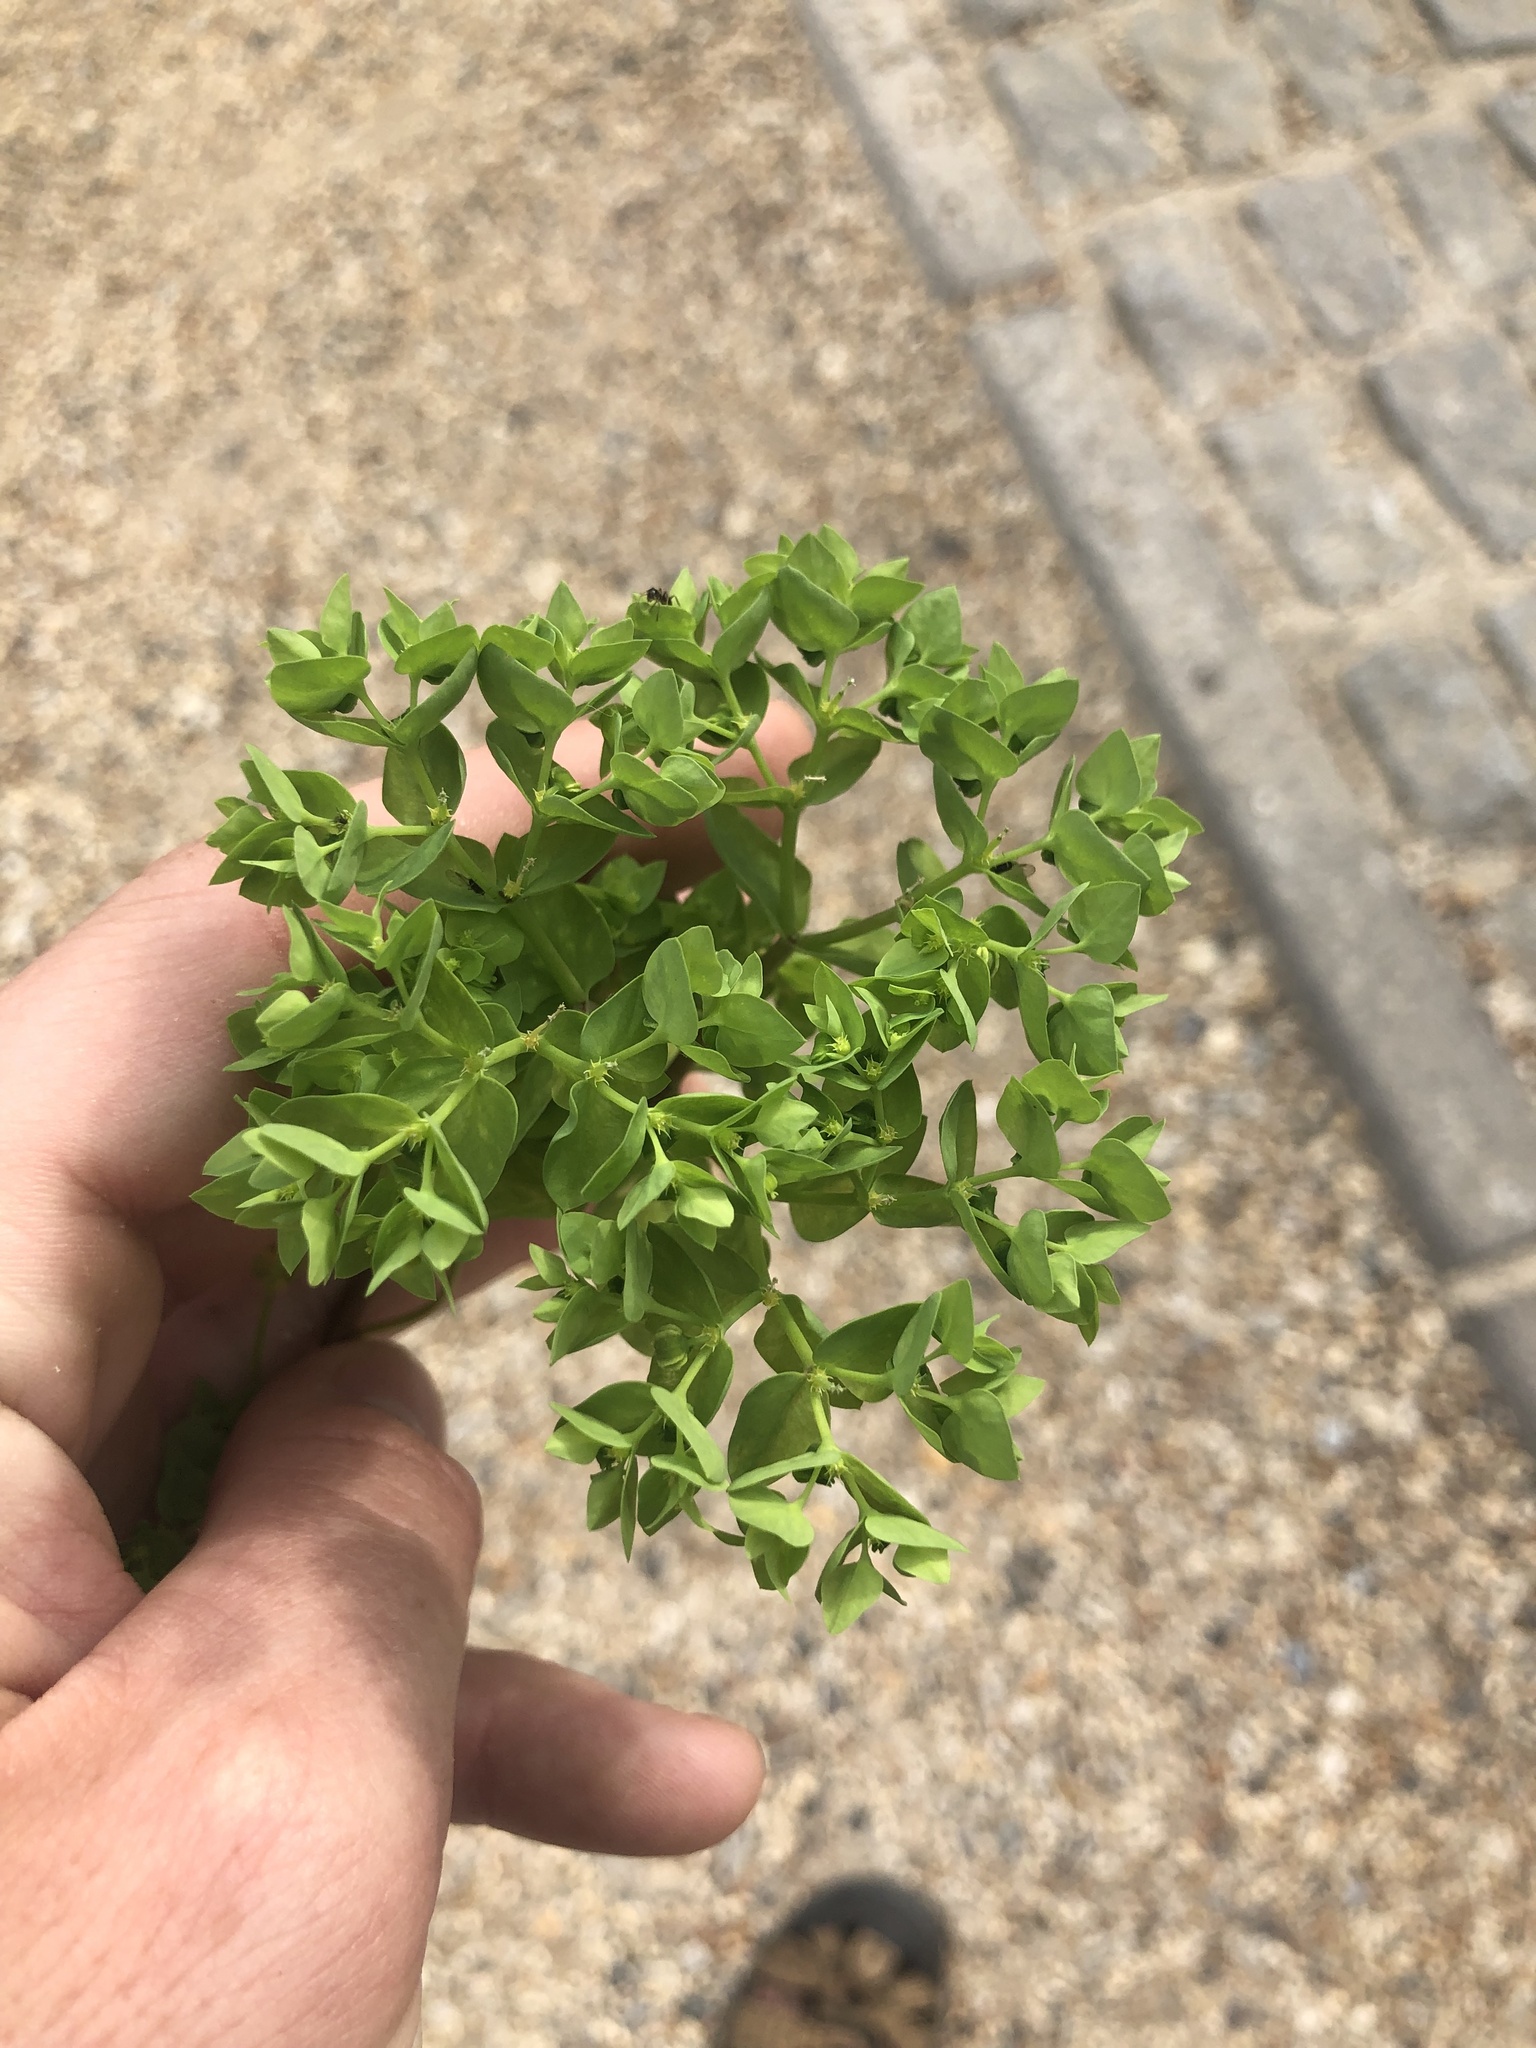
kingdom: Plantae
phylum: Tracheophyta
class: Magnoliopsida
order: Malpighiales
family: Euphorbiaceae
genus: Euphorbia
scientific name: Euphorbia peplus
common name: Petty spurge
